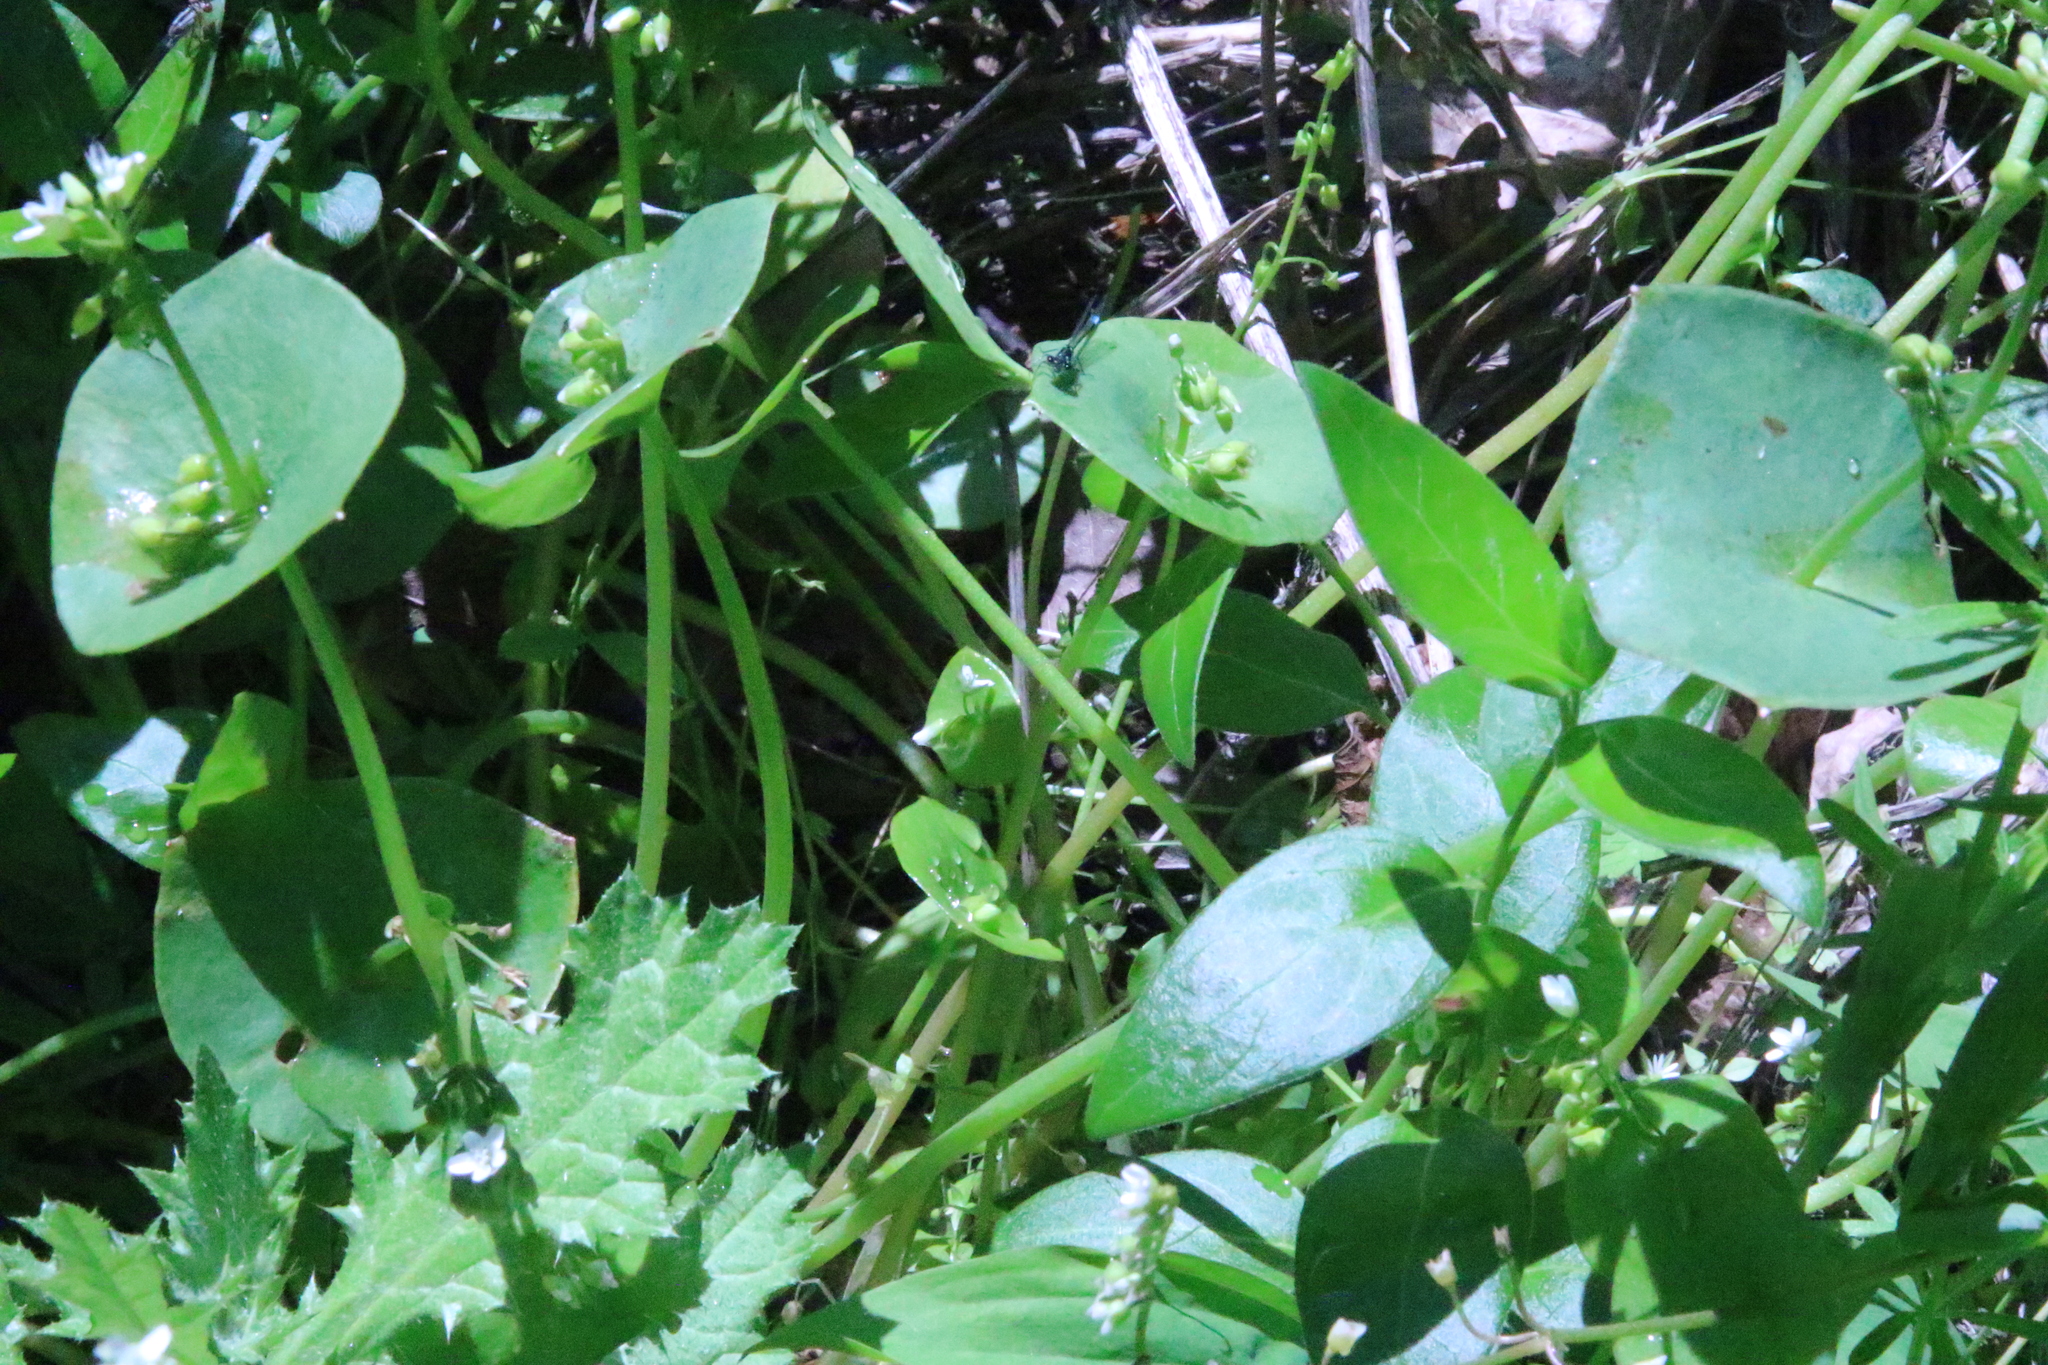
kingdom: Plantae
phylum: Tracheophyta
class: Magnoliopsida
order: Caryophyllales
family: Montiaceae
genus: Claytonia
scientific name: Claytonia perfoliata
